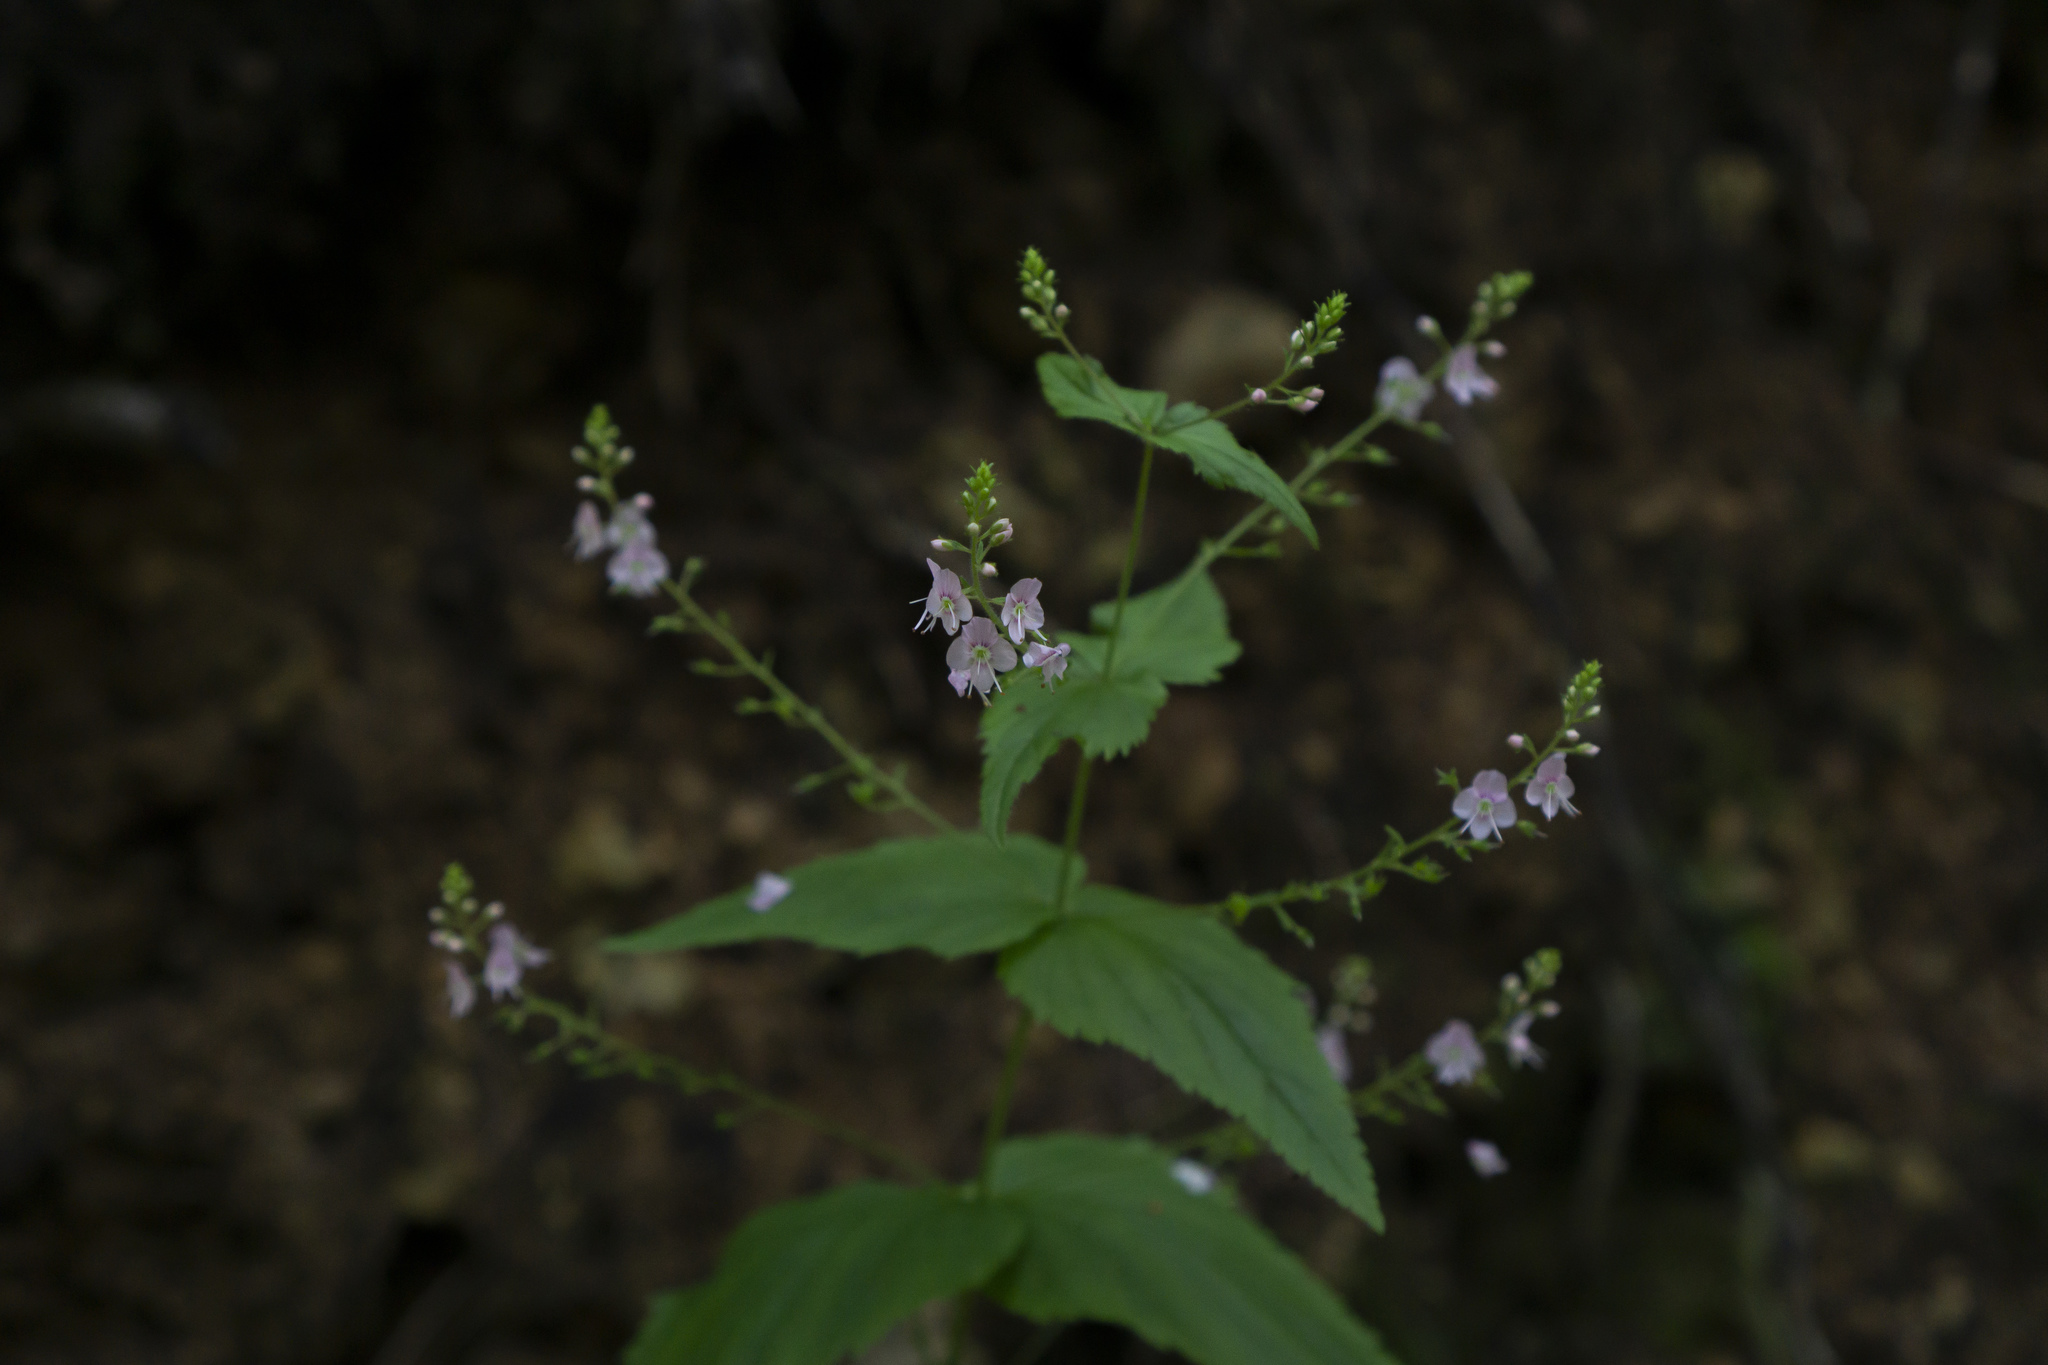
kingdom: Plantae
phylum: Tracheophyta
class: Magnoliopsida
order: Lamiales
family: Plantaginaceae
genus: Veronica
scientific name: Veronica urticifolia
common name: Nettle-leaf speedwell
